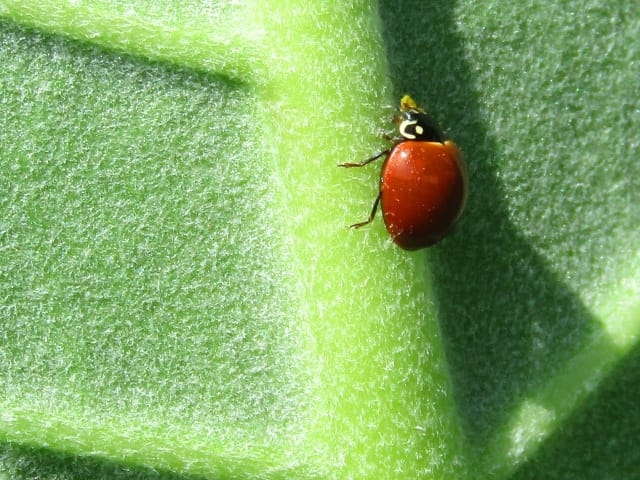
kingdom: Animalia
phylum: Arthropoda
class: Insecta
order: Coleoptera
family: Coccinellidae
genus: Cycloneda
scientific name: Cycloneda sanguinea
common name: Ladybird beetle
